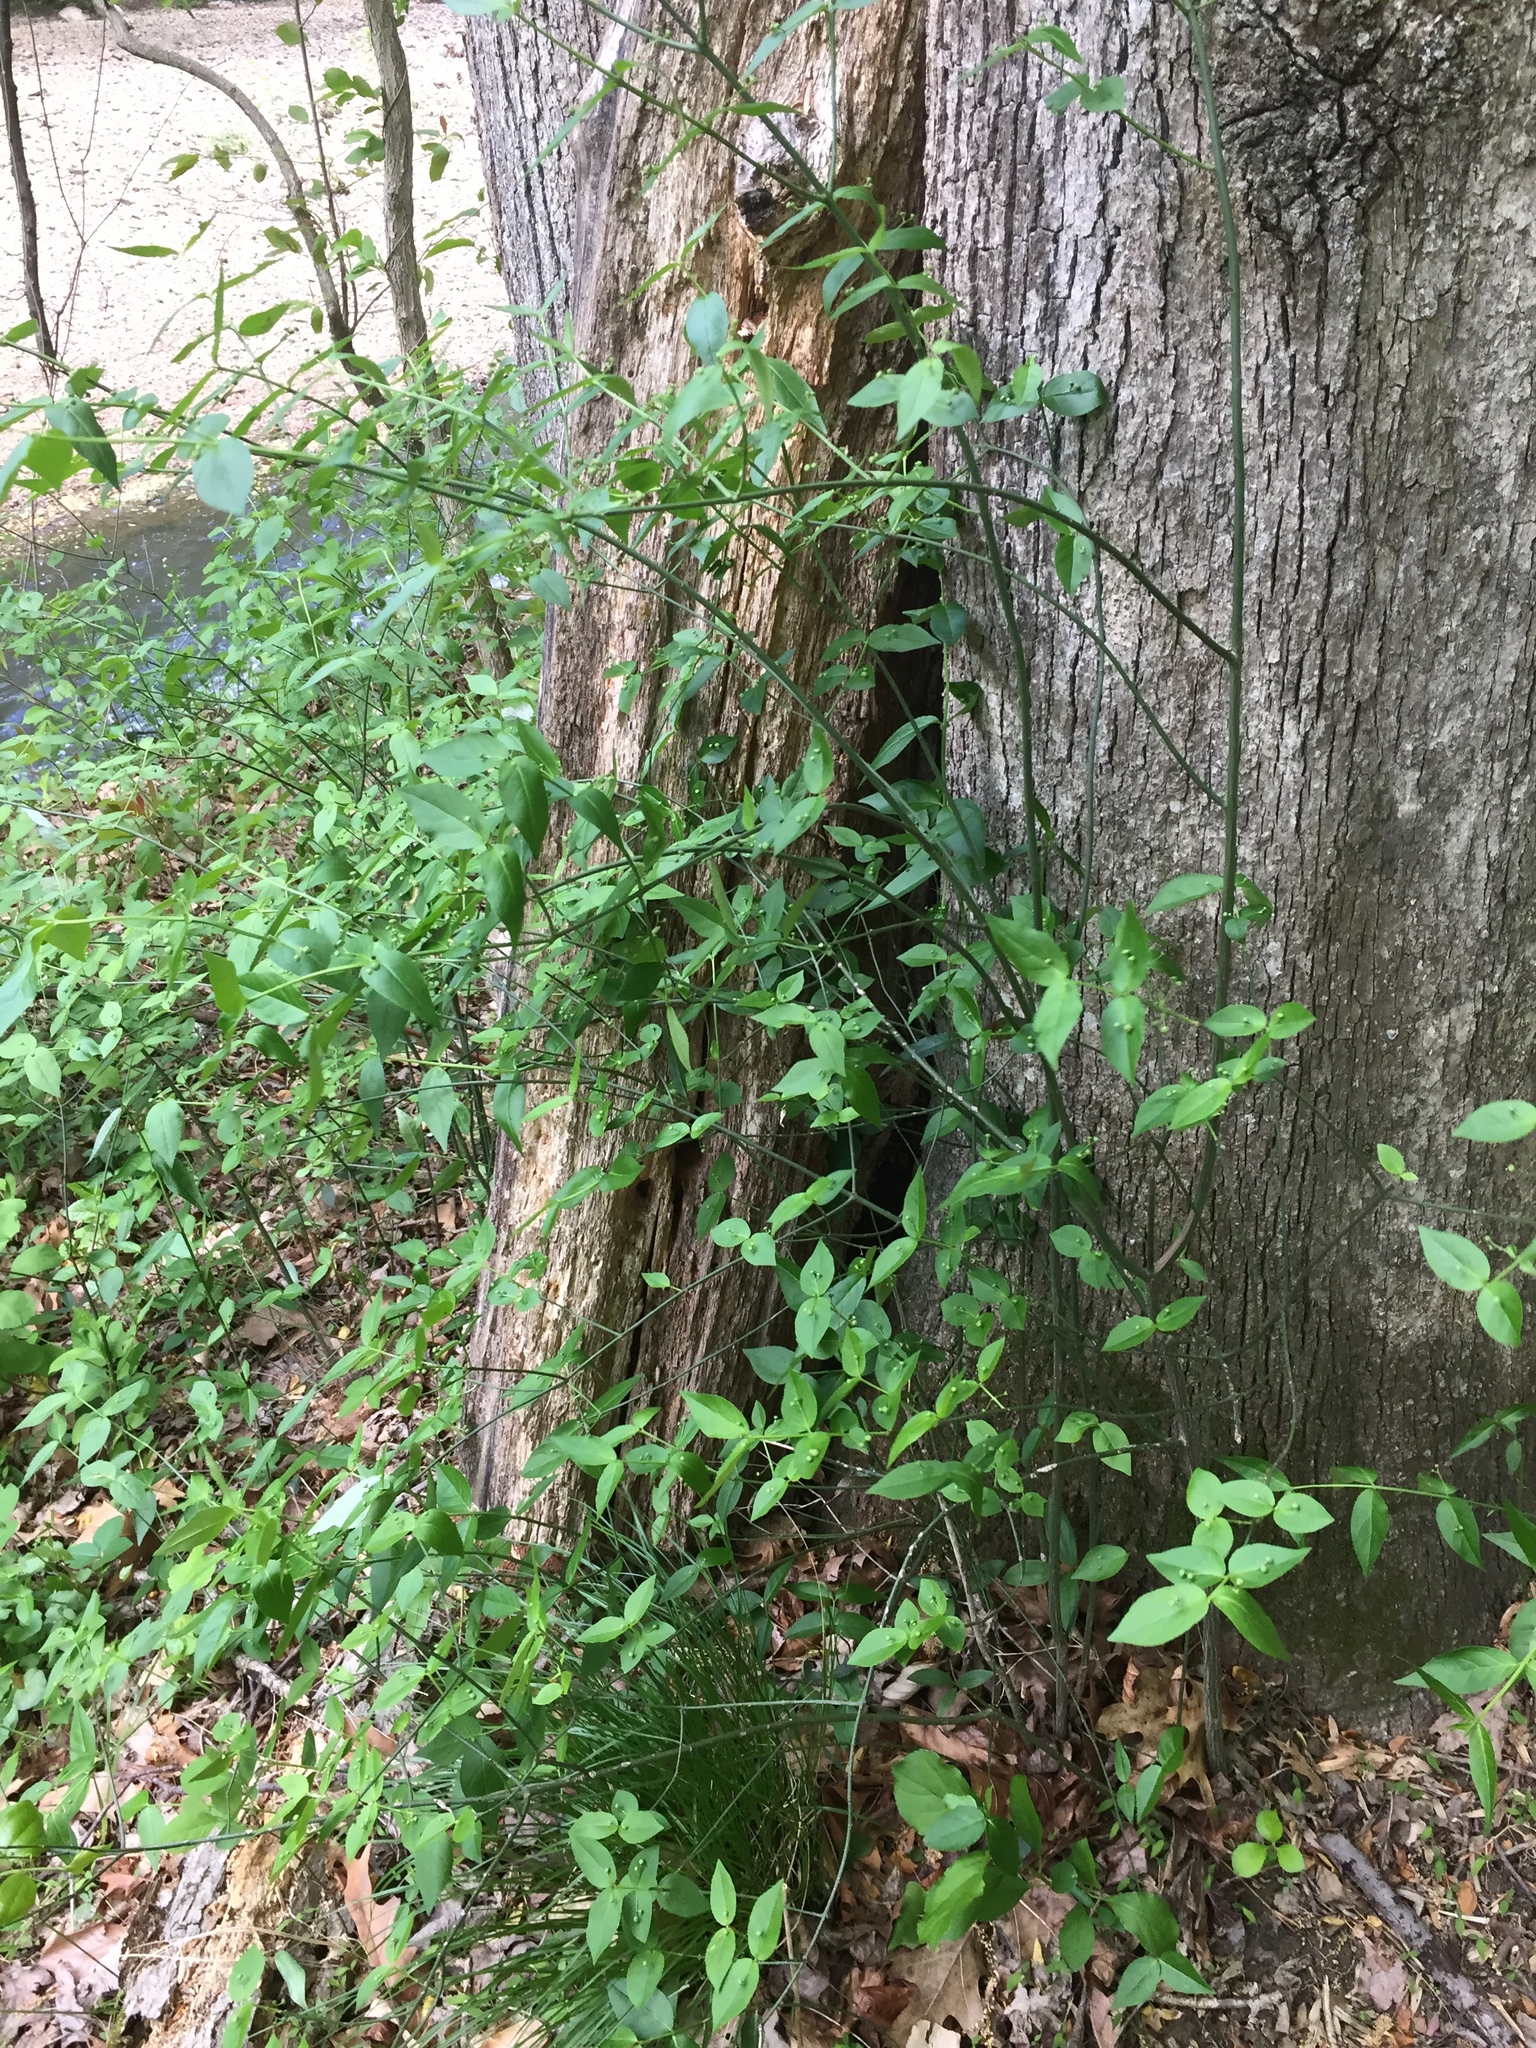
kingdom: Plantae
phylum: Tracheophyta
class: Magnoliopsida
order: Celastrales
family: Celastraceae
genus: Euonymus
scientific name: Euonymus americanus
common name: Bursting-heart
